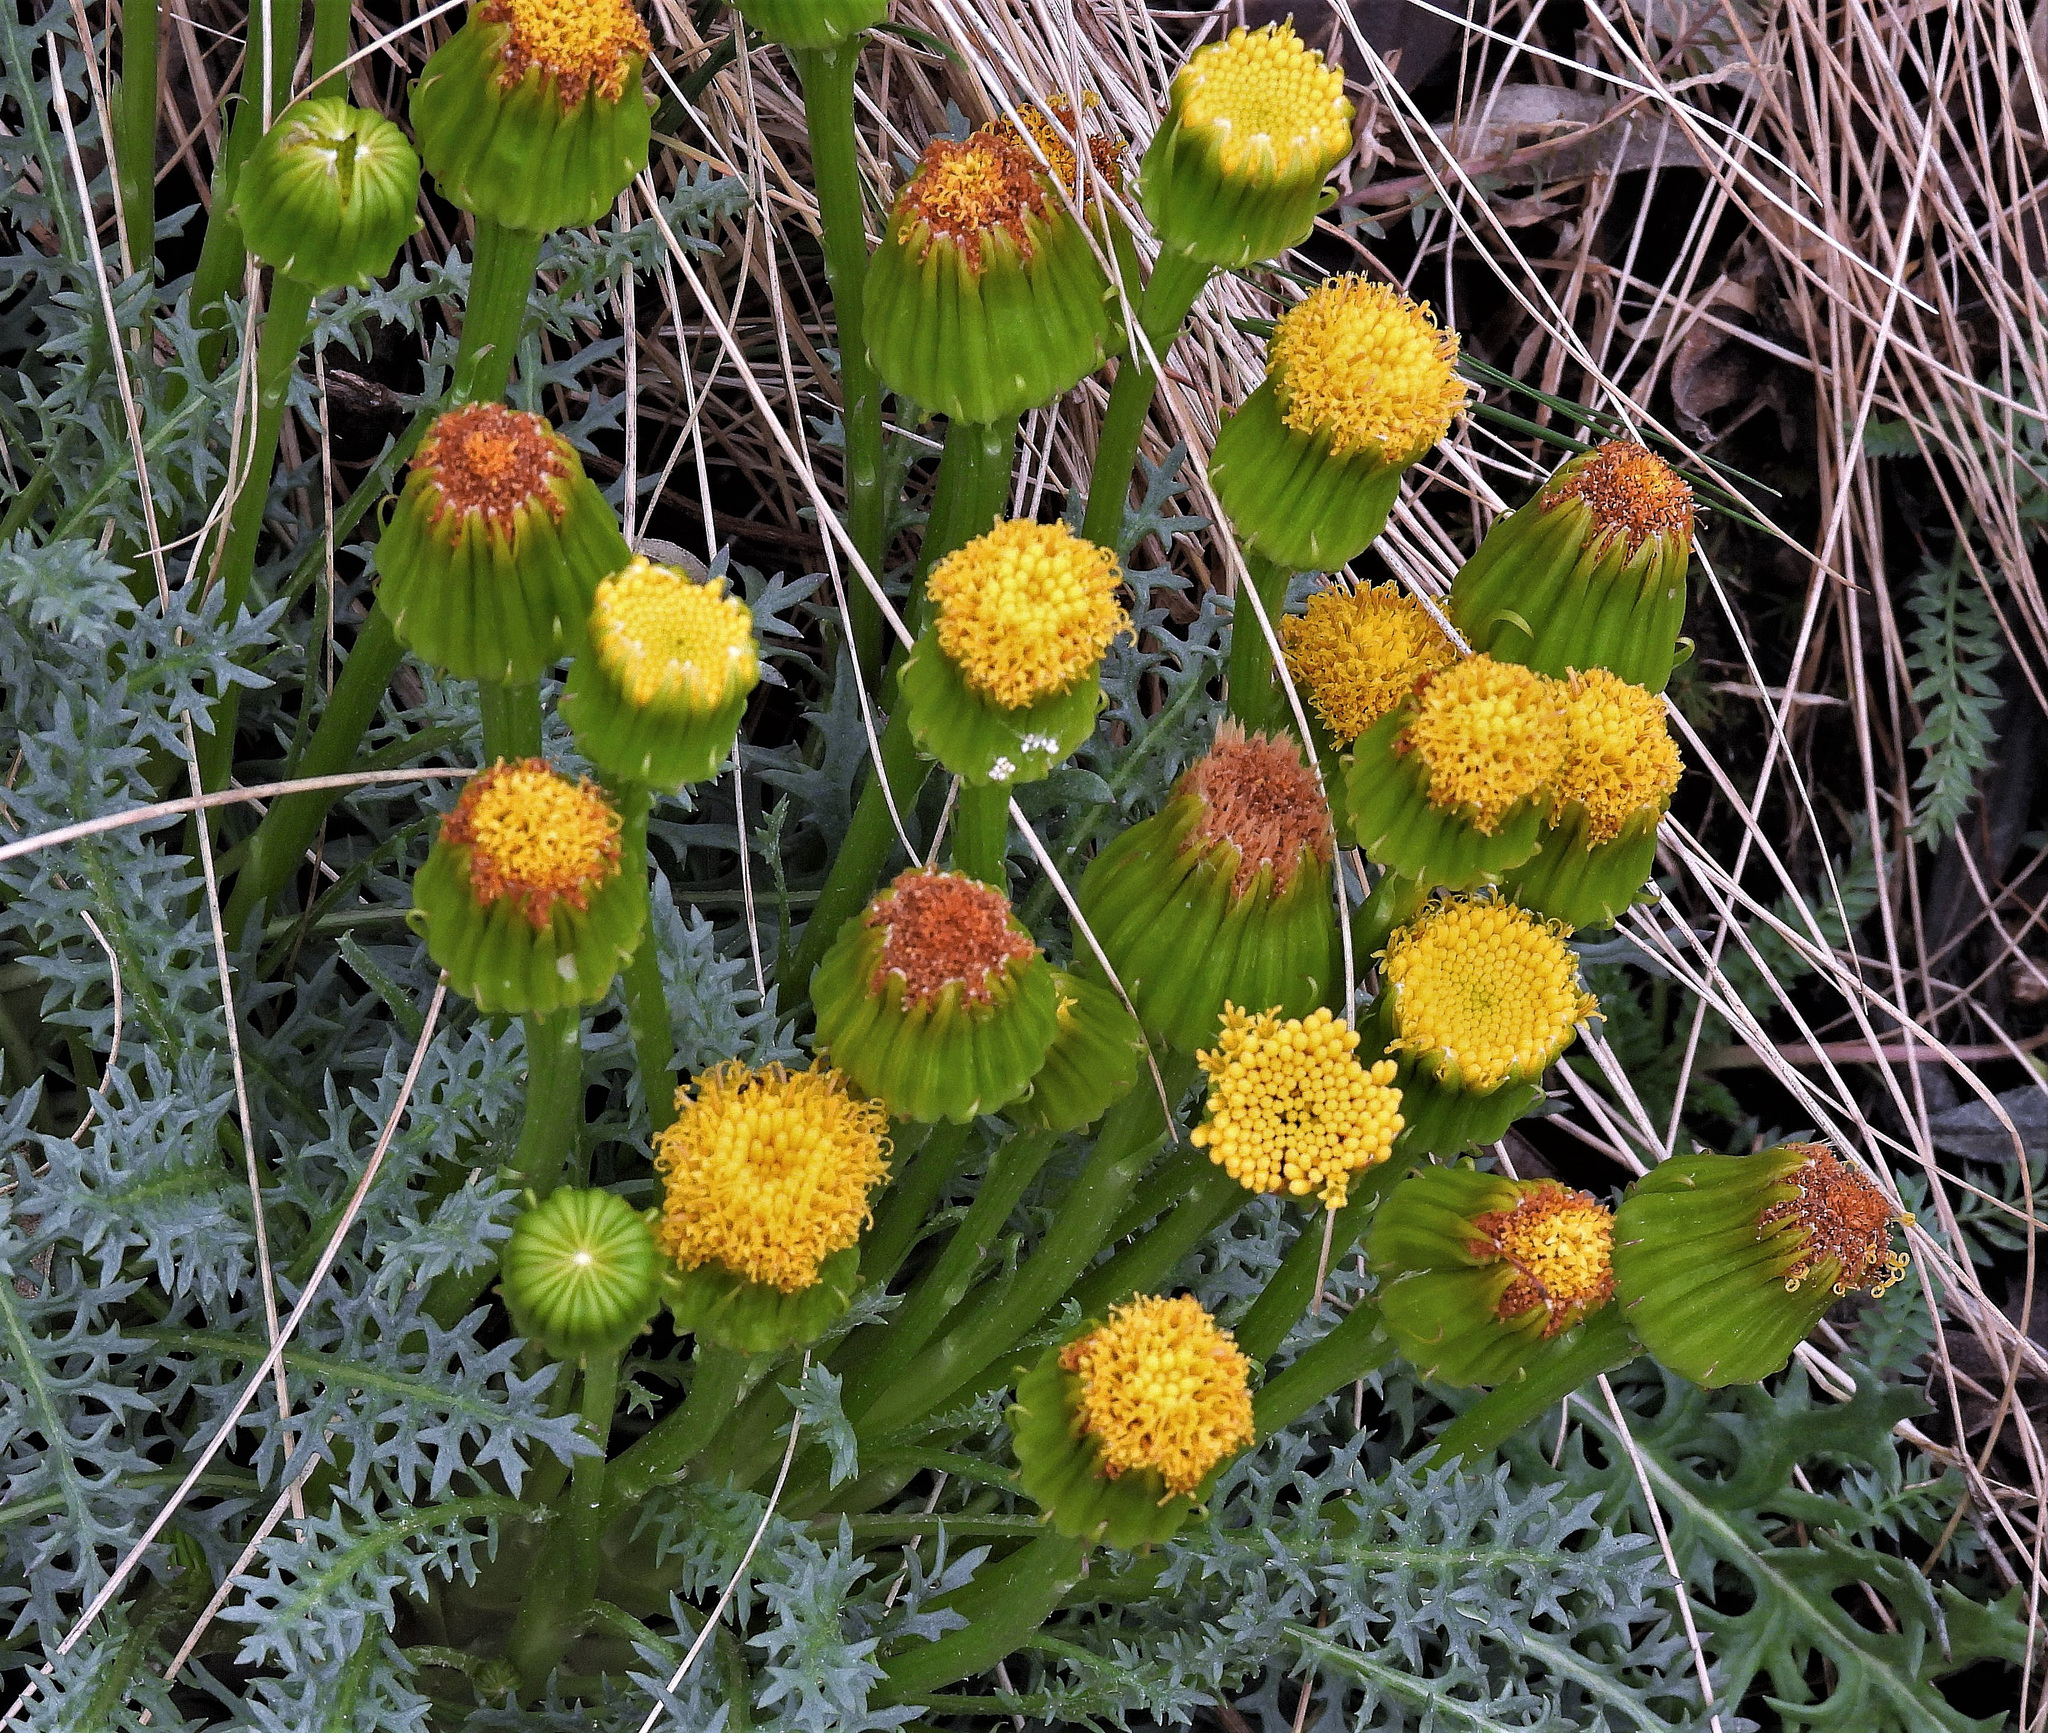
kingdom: Plantae
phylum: Tracheophyta
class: Magnoliopsida
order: Asterales
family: Asteraceae
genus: Senecio
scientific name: Senecio jarae
